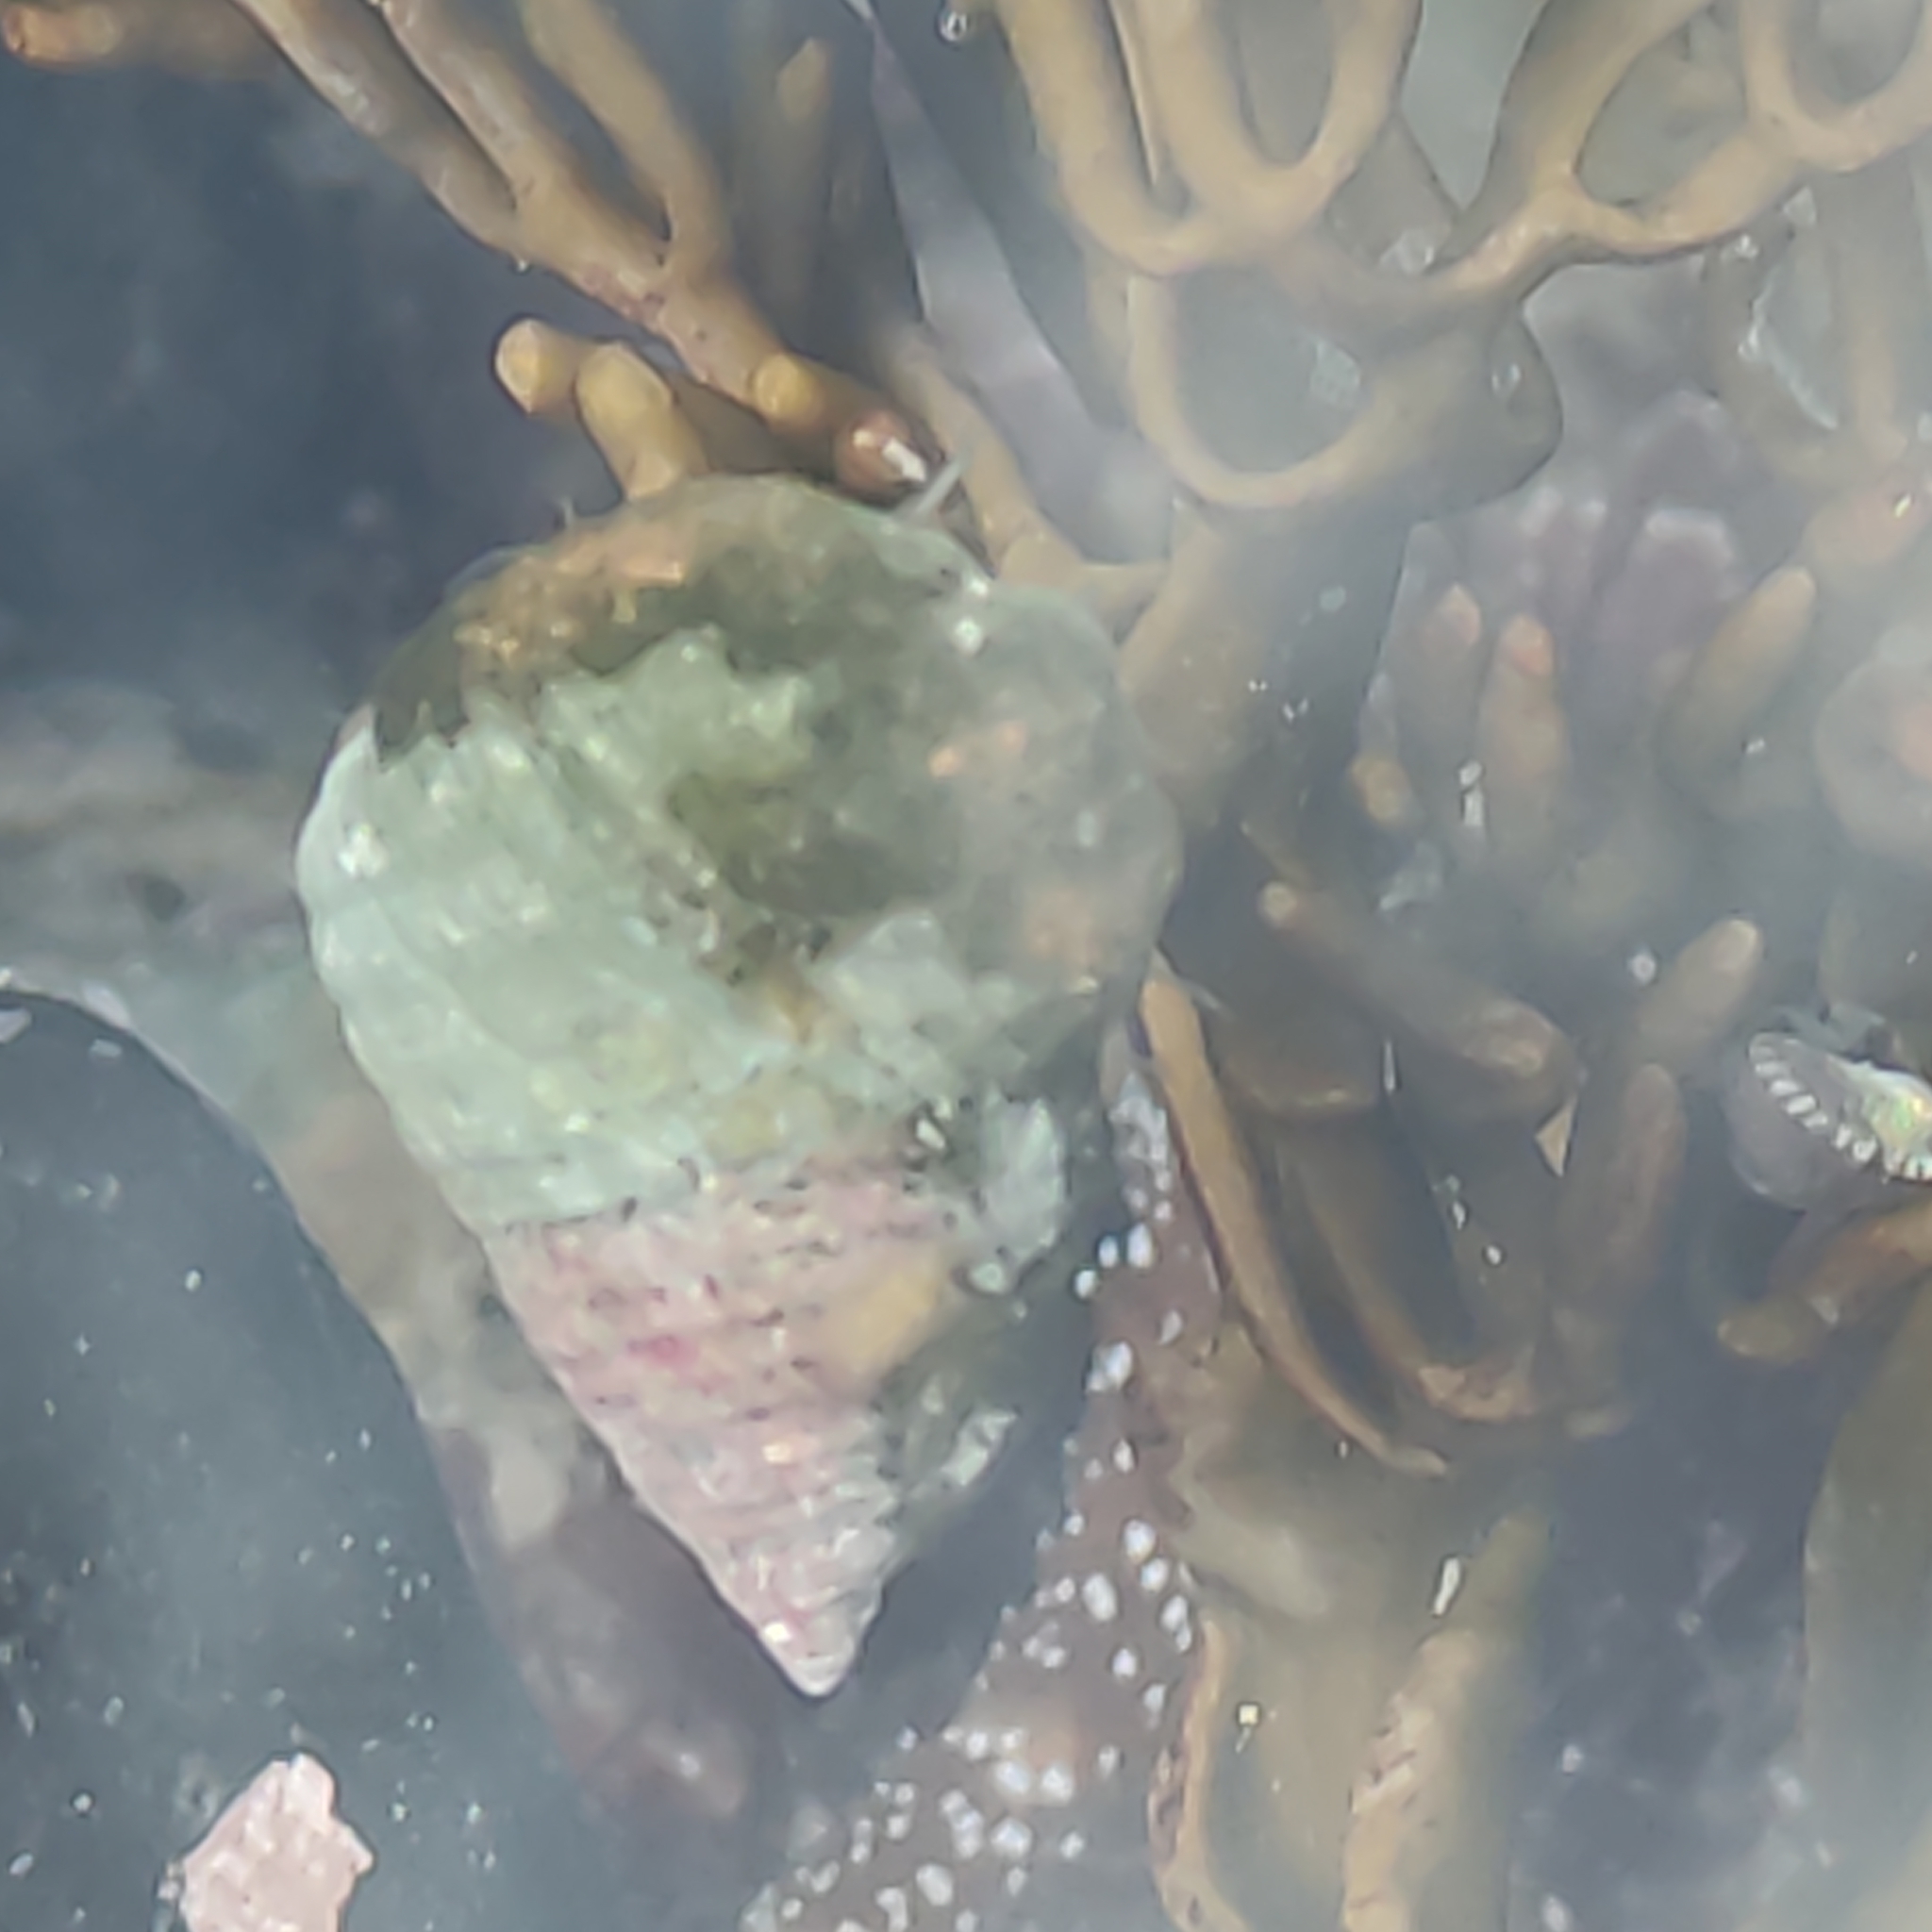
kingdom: Animalia
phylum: Mollusca
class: Gastropoda
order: Trochida
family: Trochidae
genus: Micrelenchus
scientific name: Micrelenchus purpureus
